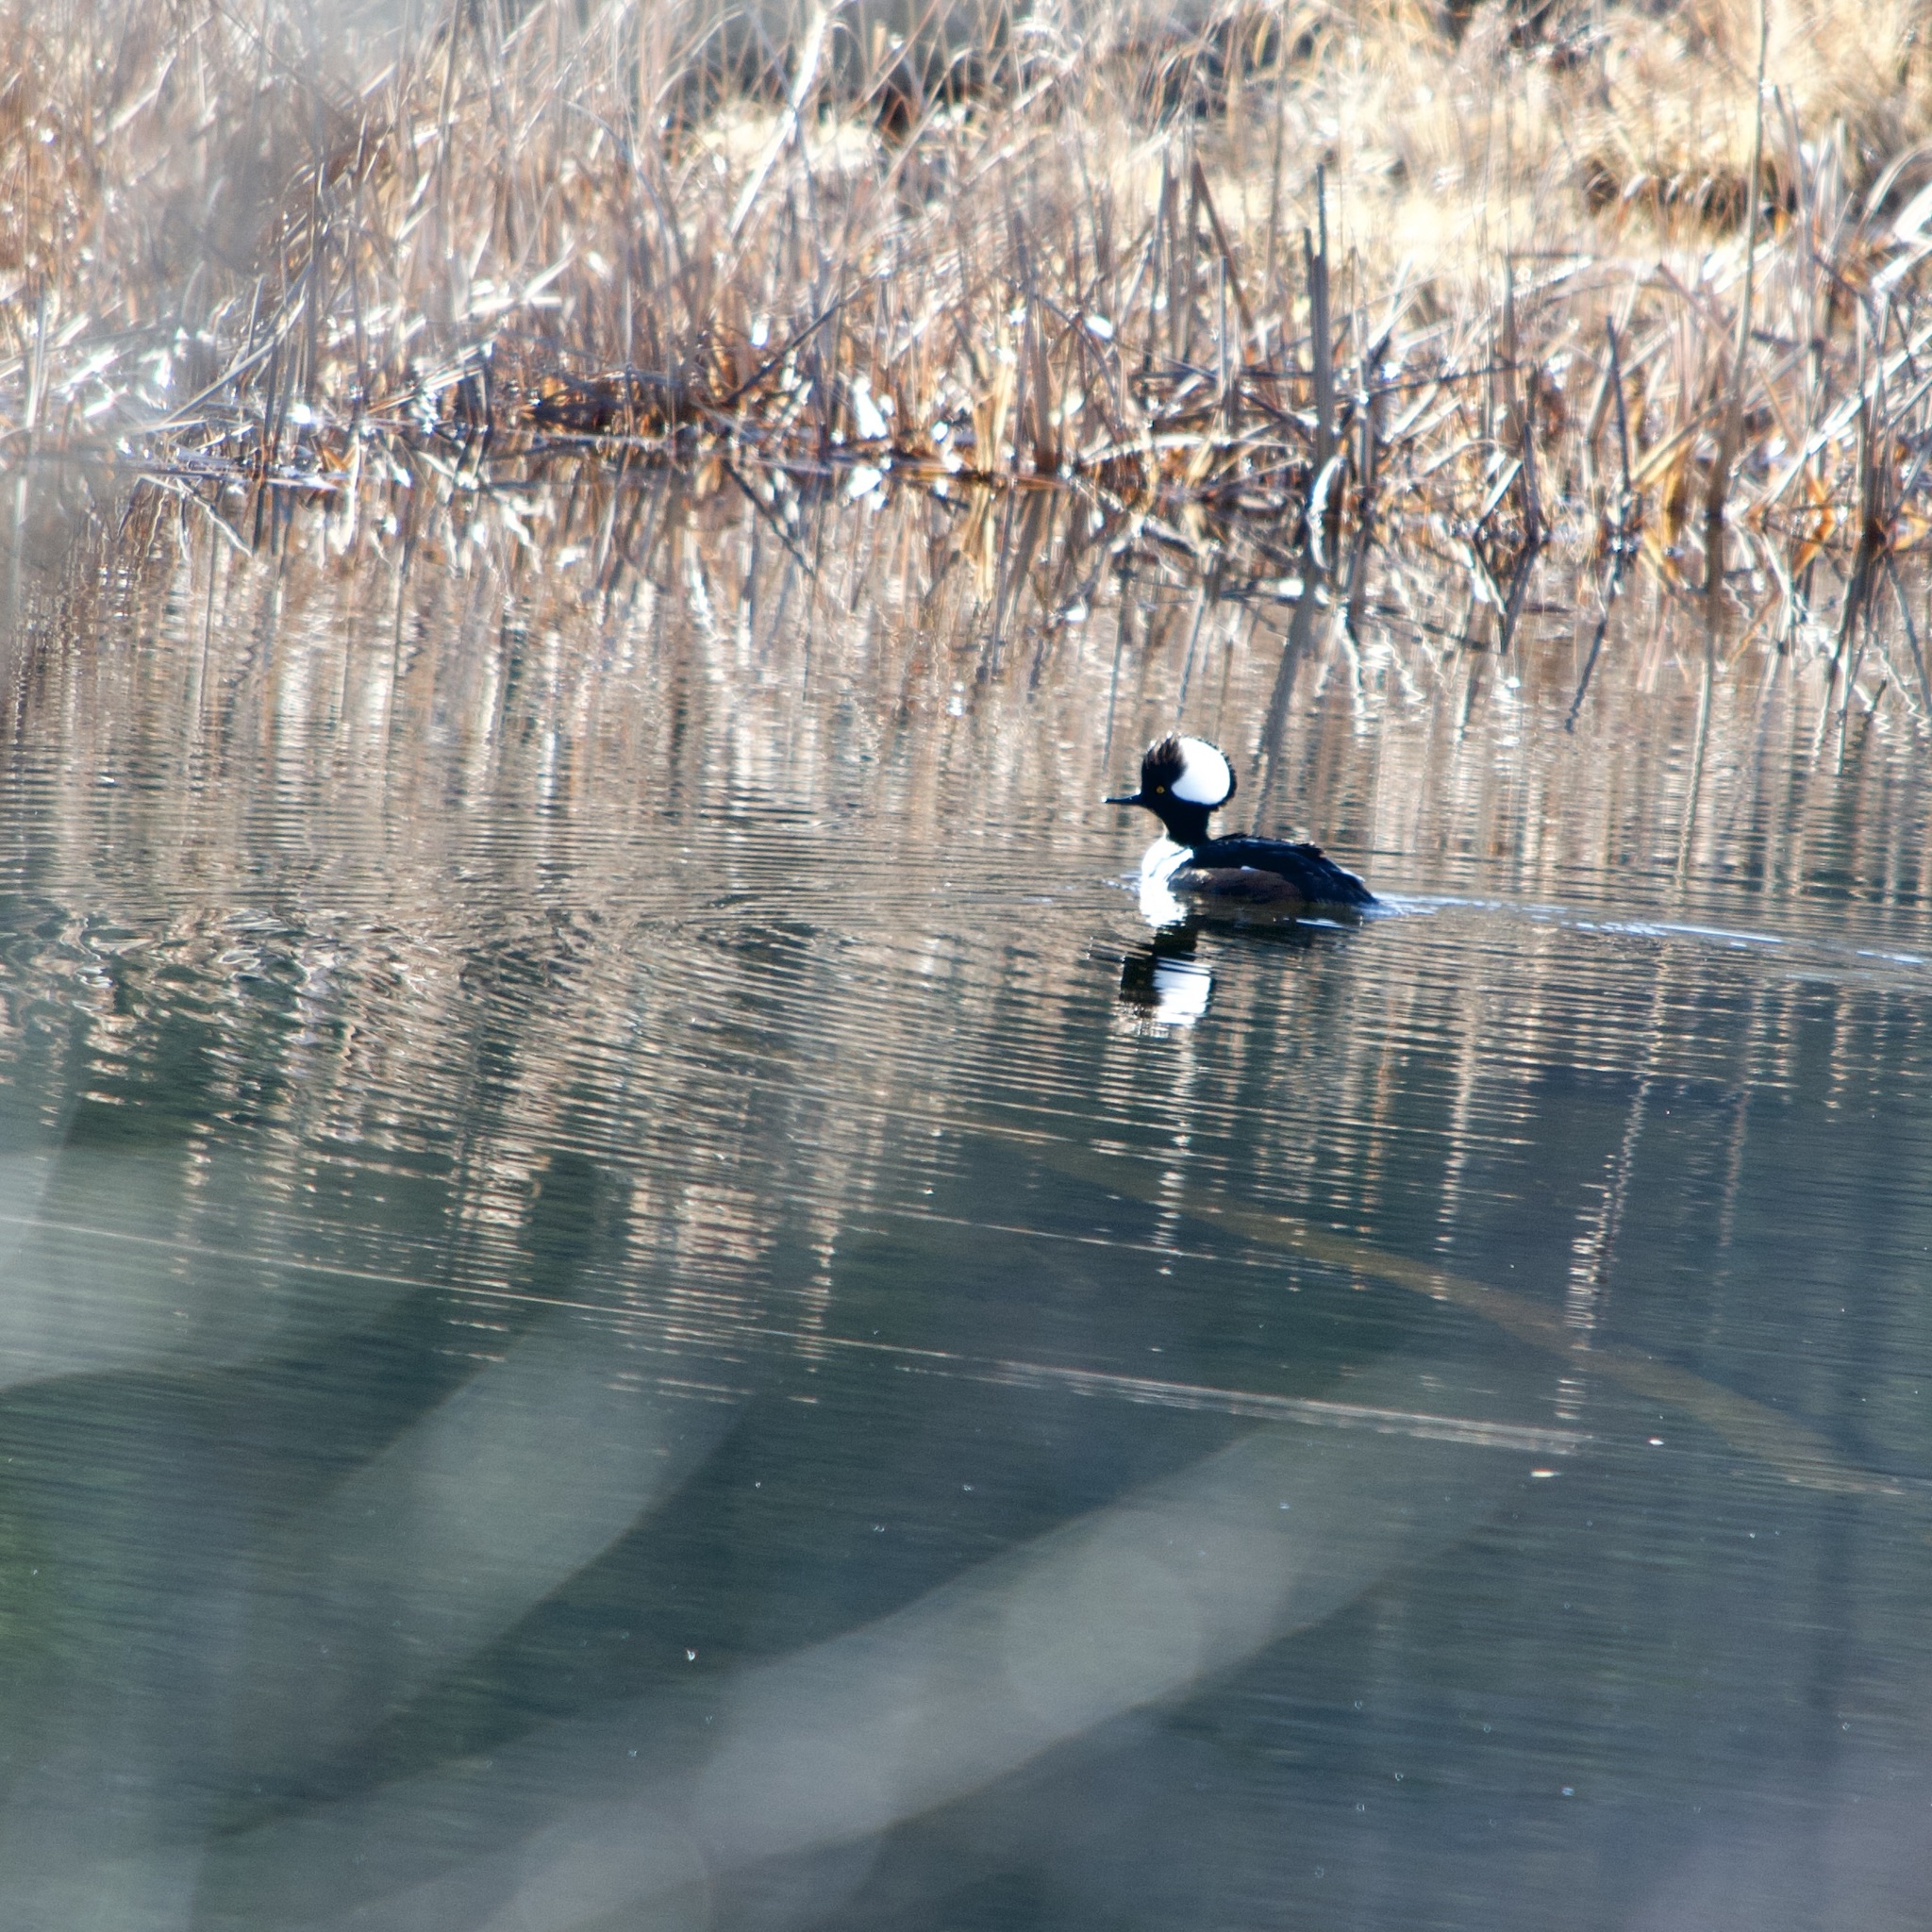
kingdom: Animalia
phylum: Chordata
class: Aves
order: Anseriformes
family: Anatidae
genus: Lophodytes
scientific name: Lophodytes cucullatus
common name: Hooded merganser
